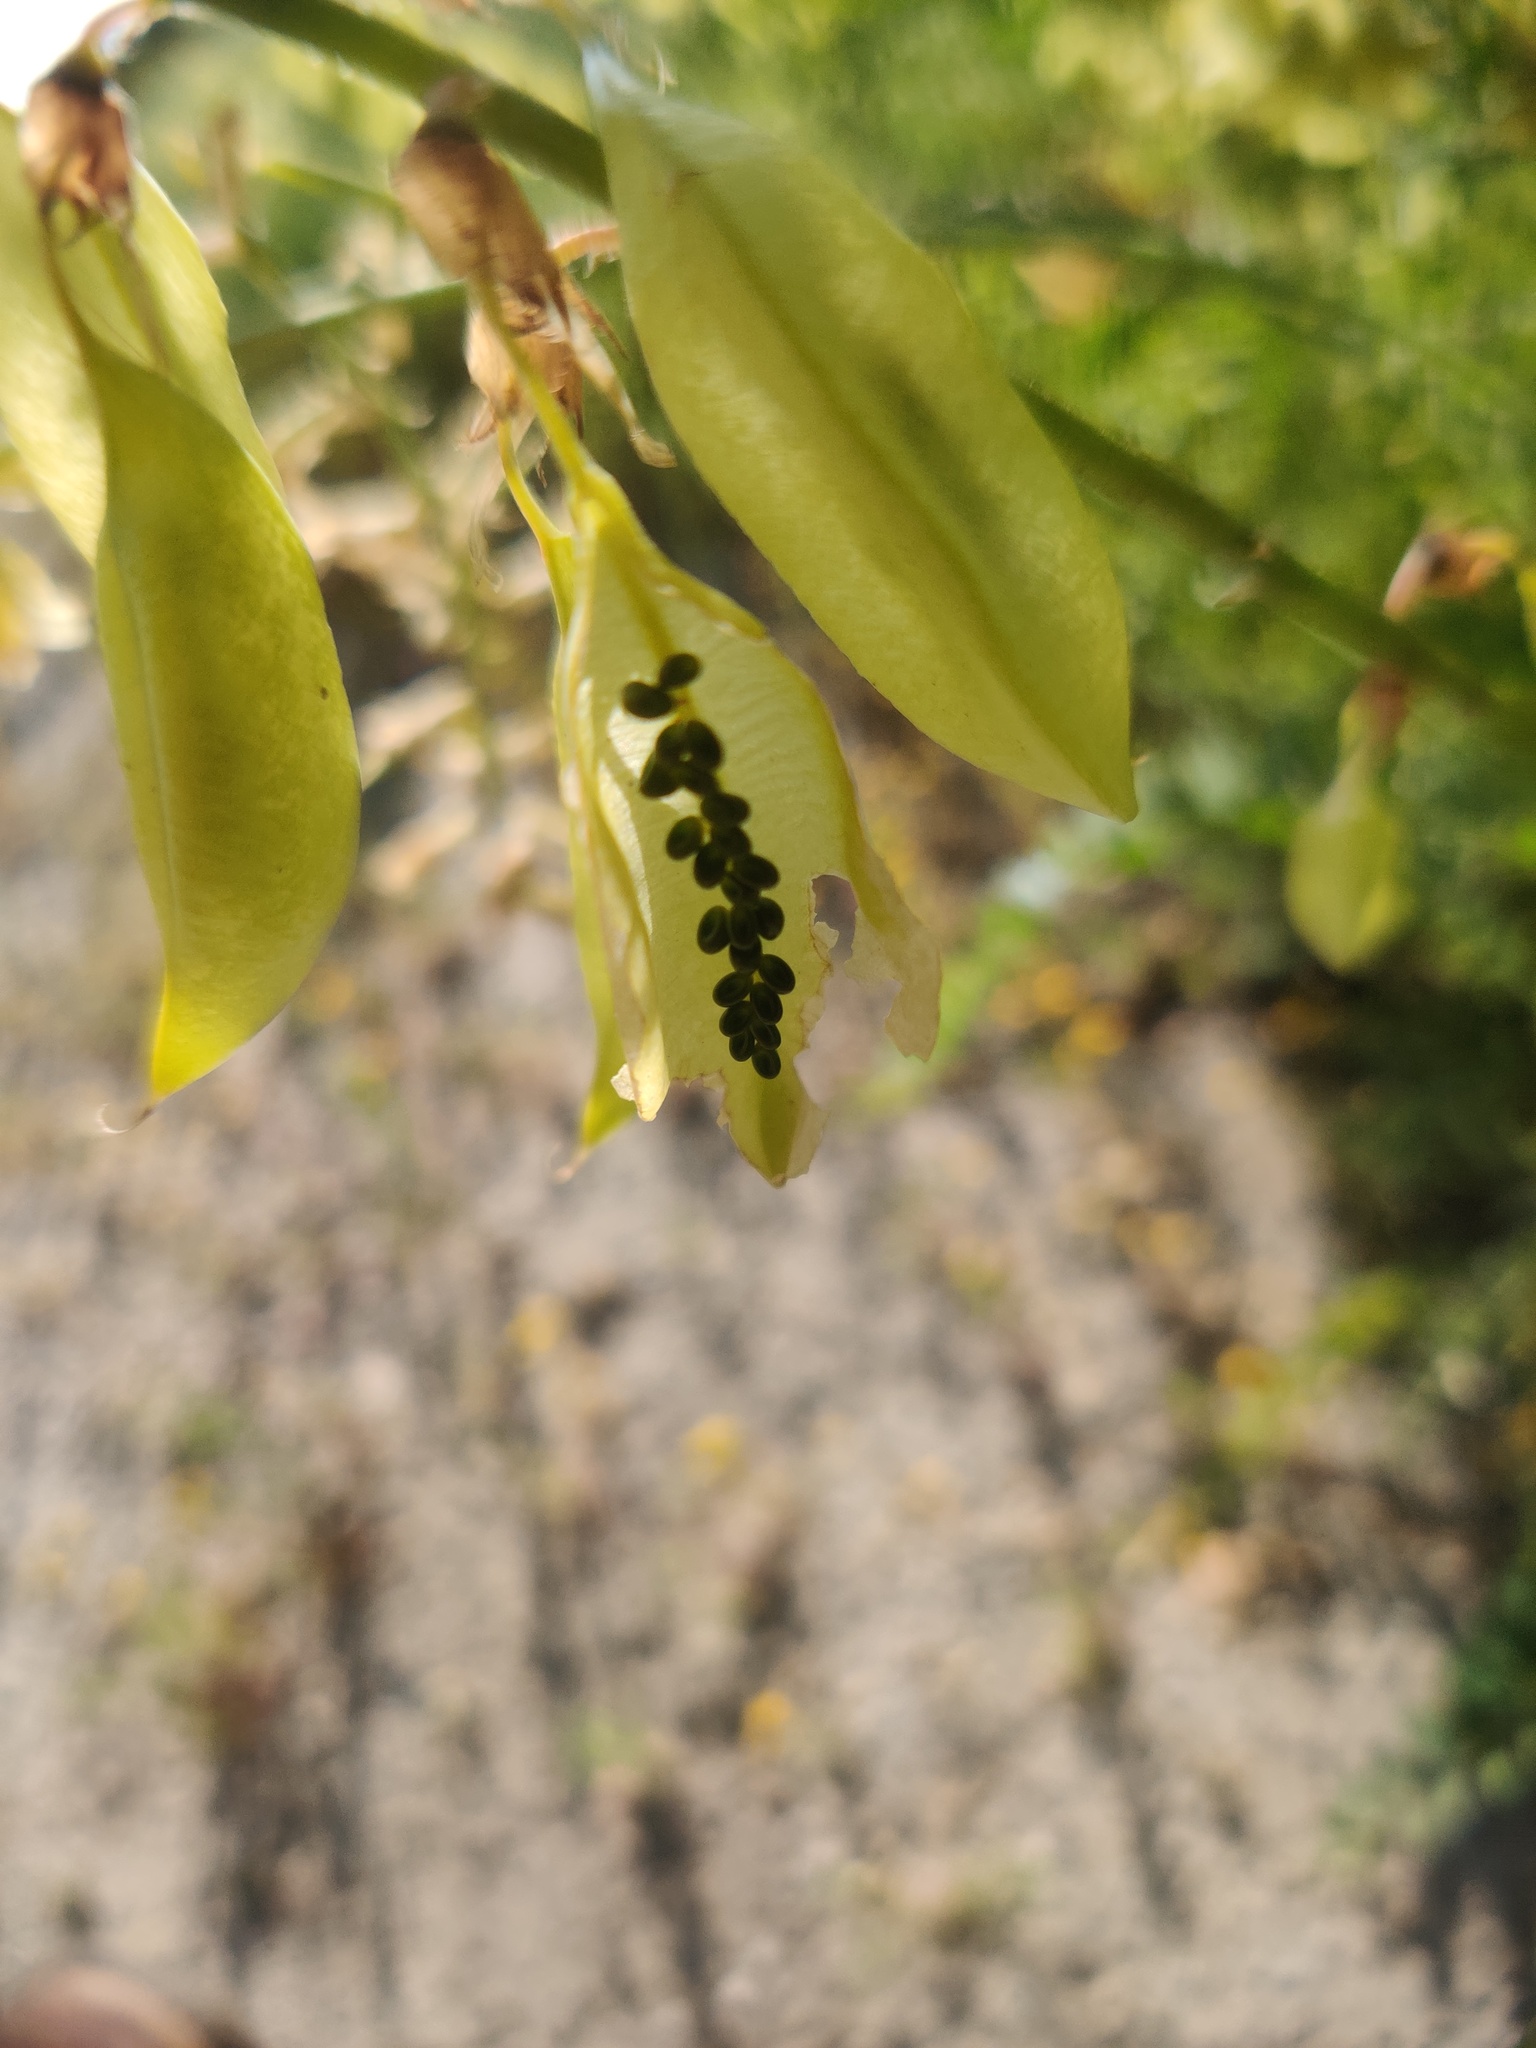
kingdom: Plantae
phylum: Tracheophyta
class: Magnoliopsida
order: Fabales
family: Fabaceae
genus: Astragalus
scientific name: Astragalus trichopodus
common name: Santa barbara milk-vetch
